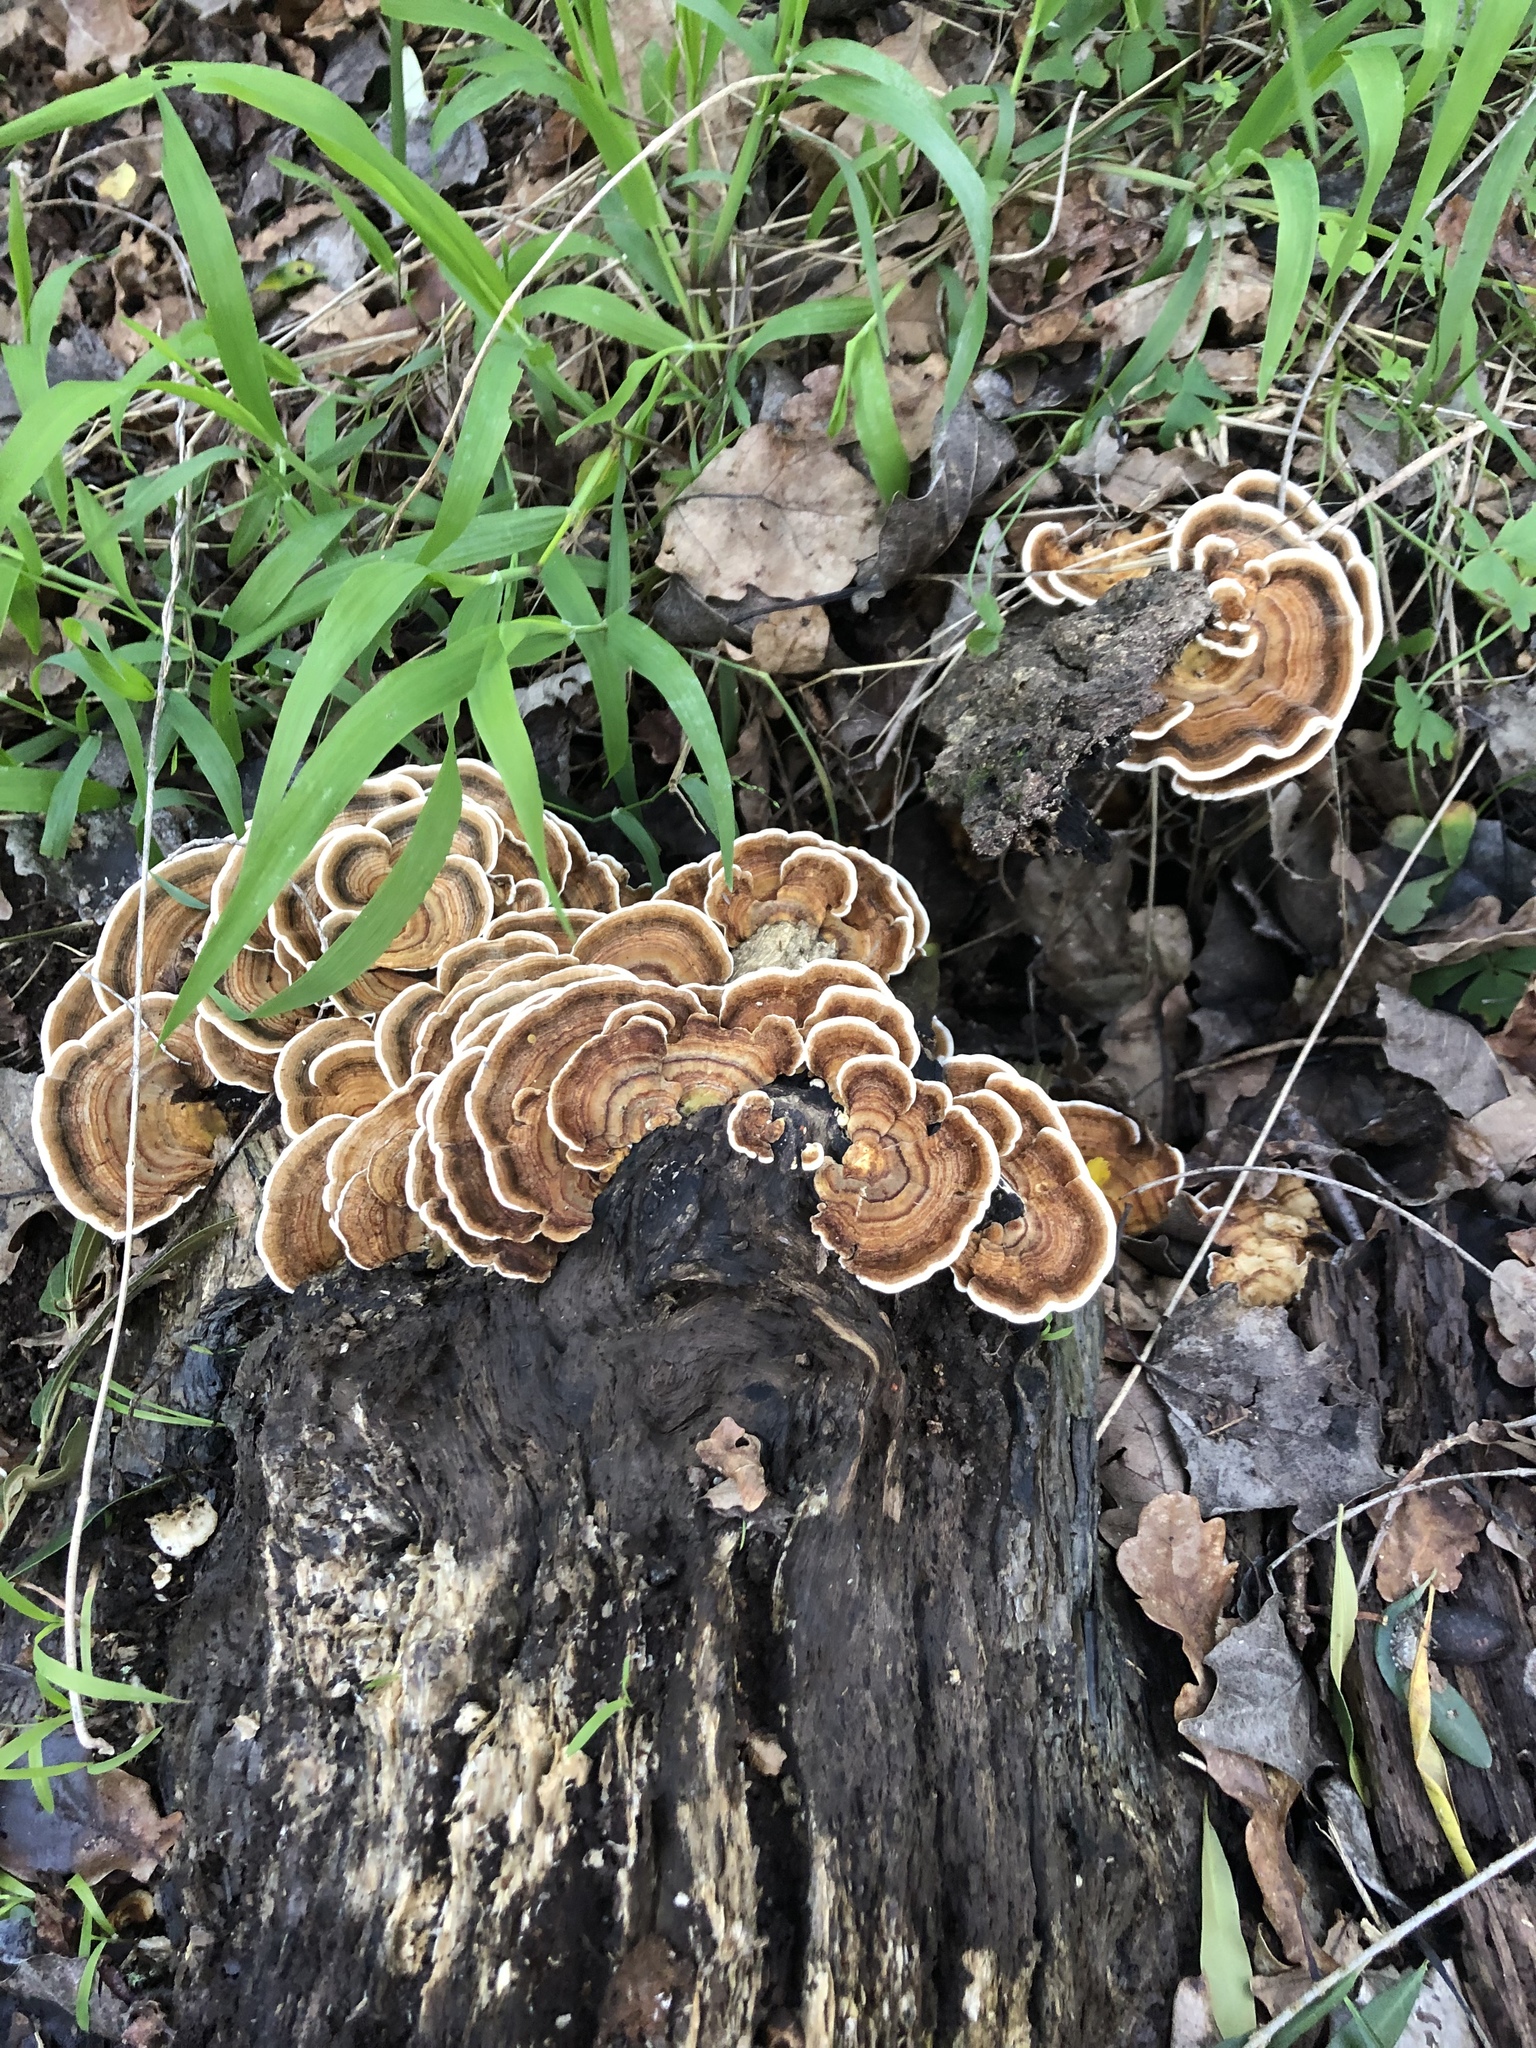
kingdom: Fungi
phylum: Basidiomycota
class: Agaricomycetes
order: Polyporales
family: Polyporaceae
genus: Trametes
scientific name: Trametes versicolor
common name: Turkeytail
